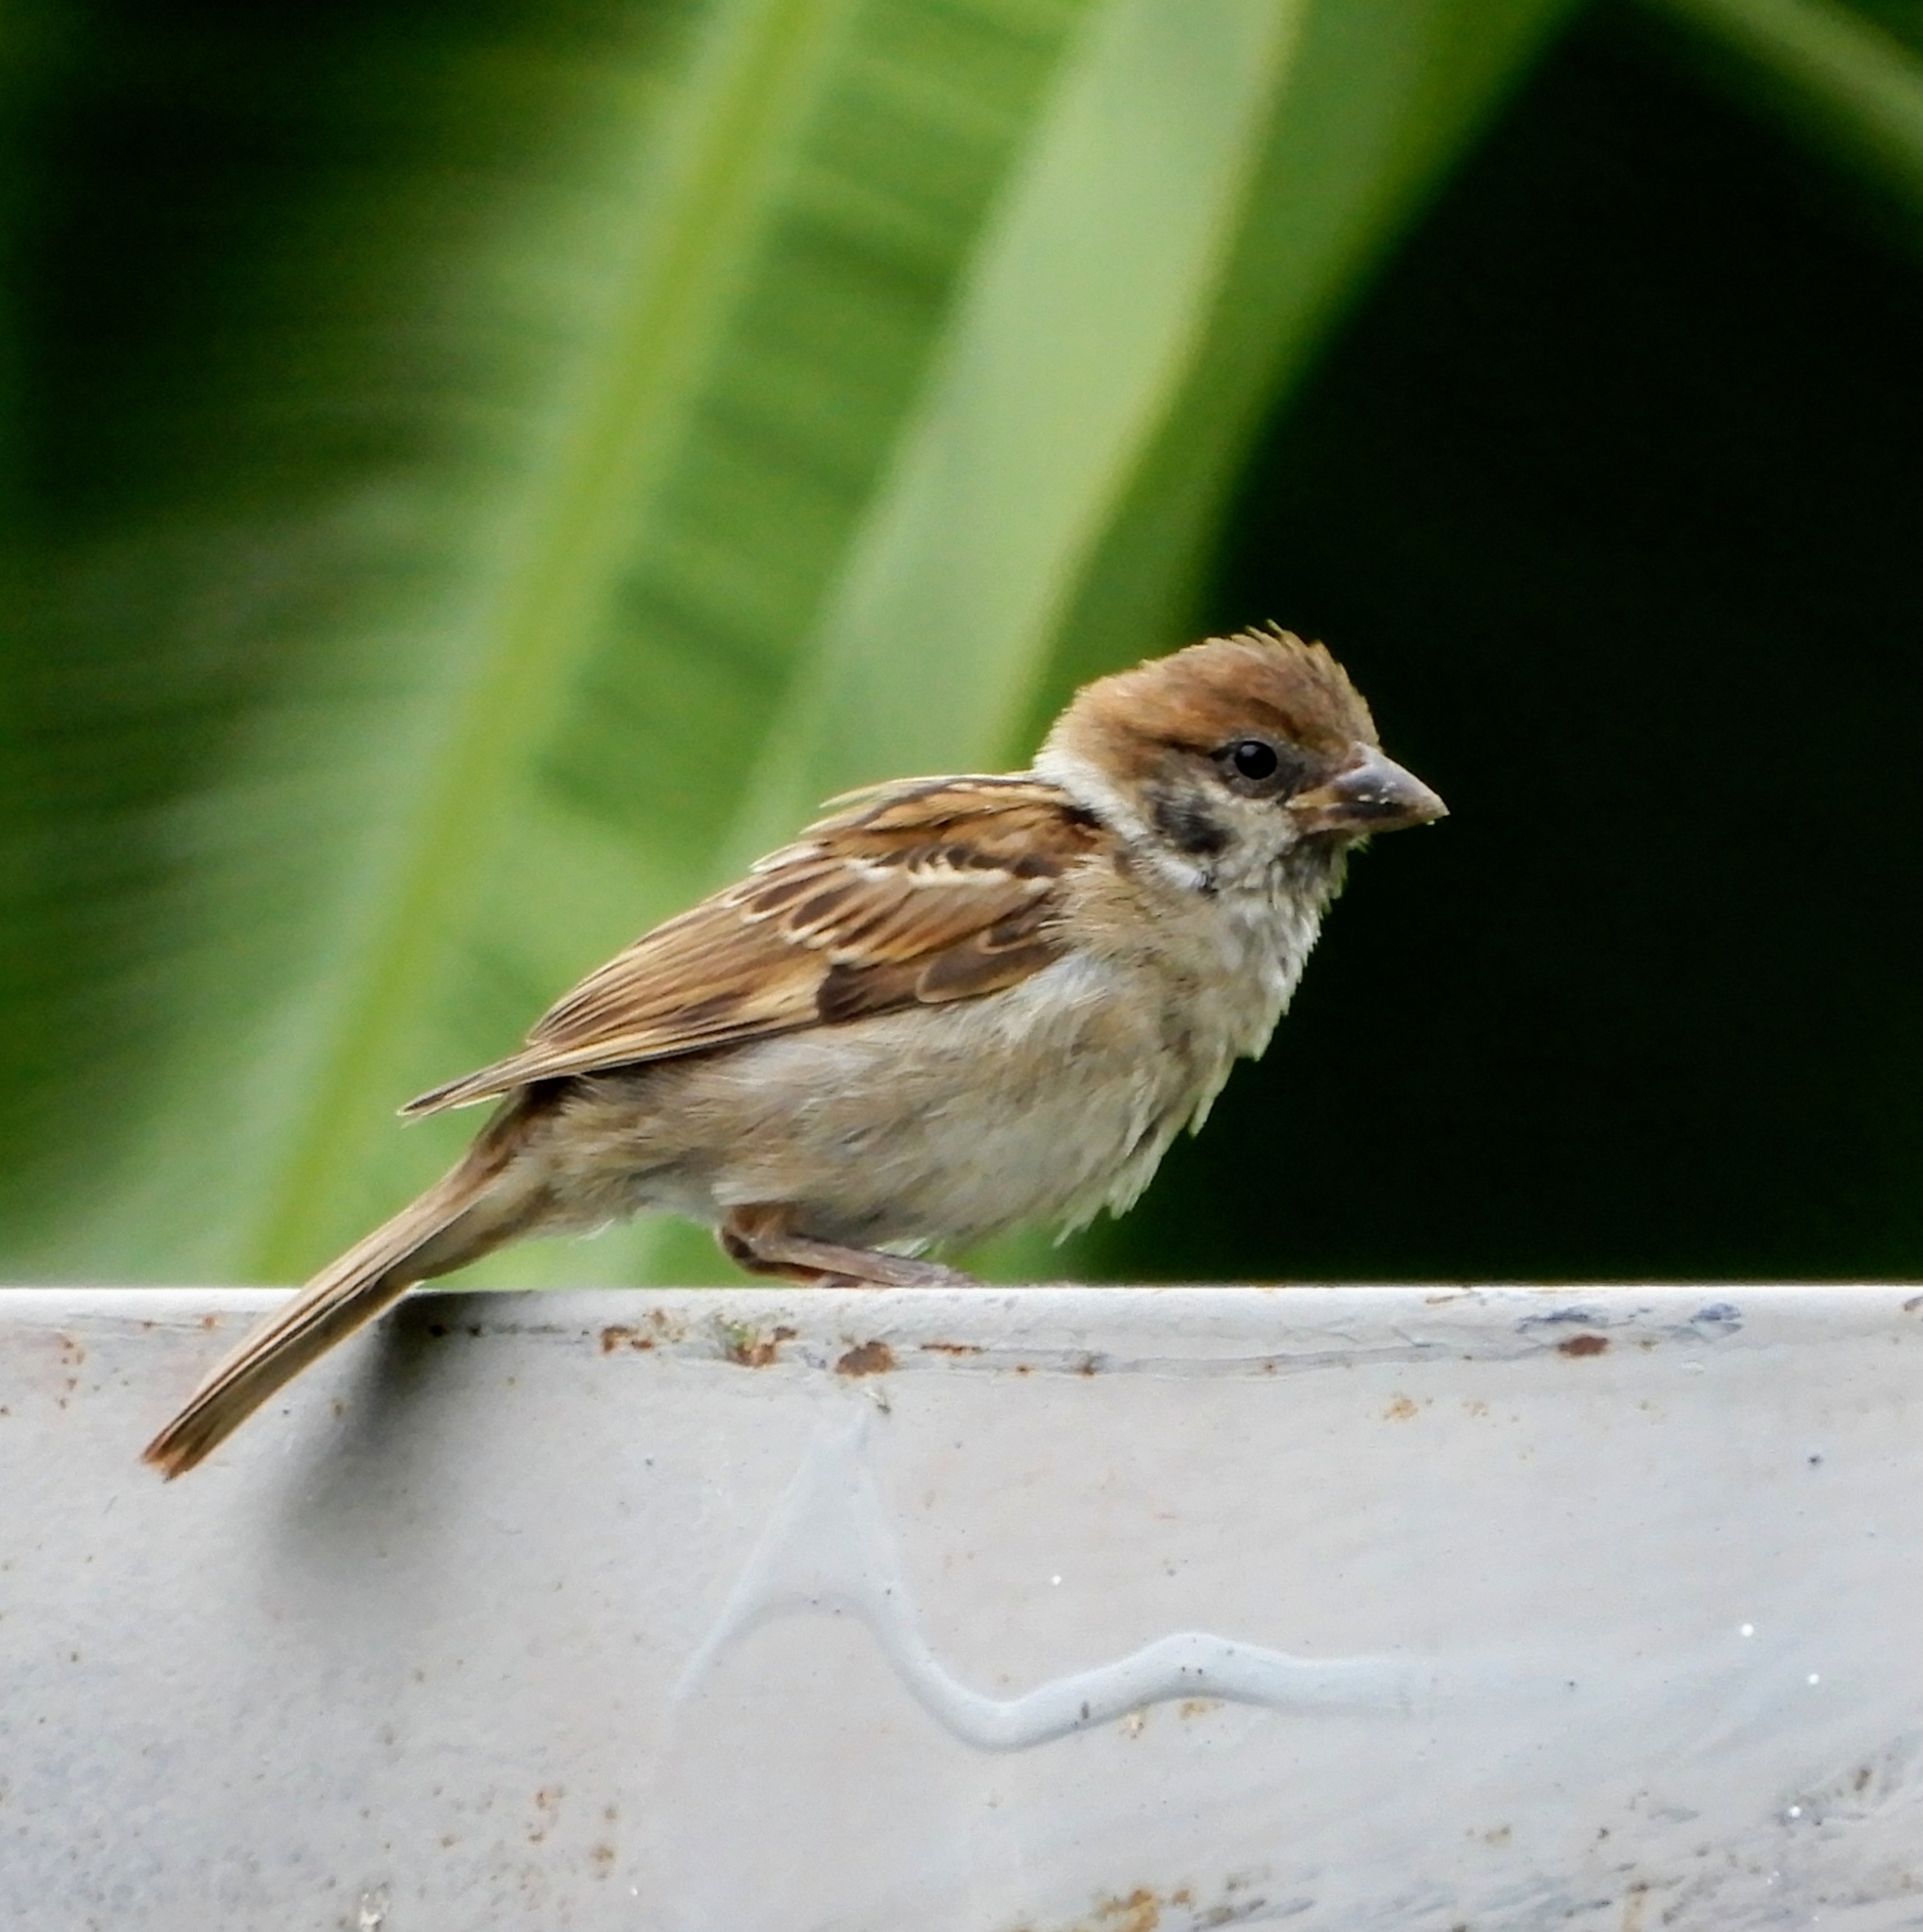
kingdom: Animalia
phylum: Chordata
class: Aves
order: Passeriformes
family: Passeridae
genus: Passer
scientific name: Passer montanus
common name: Eurasian tree sparrow
